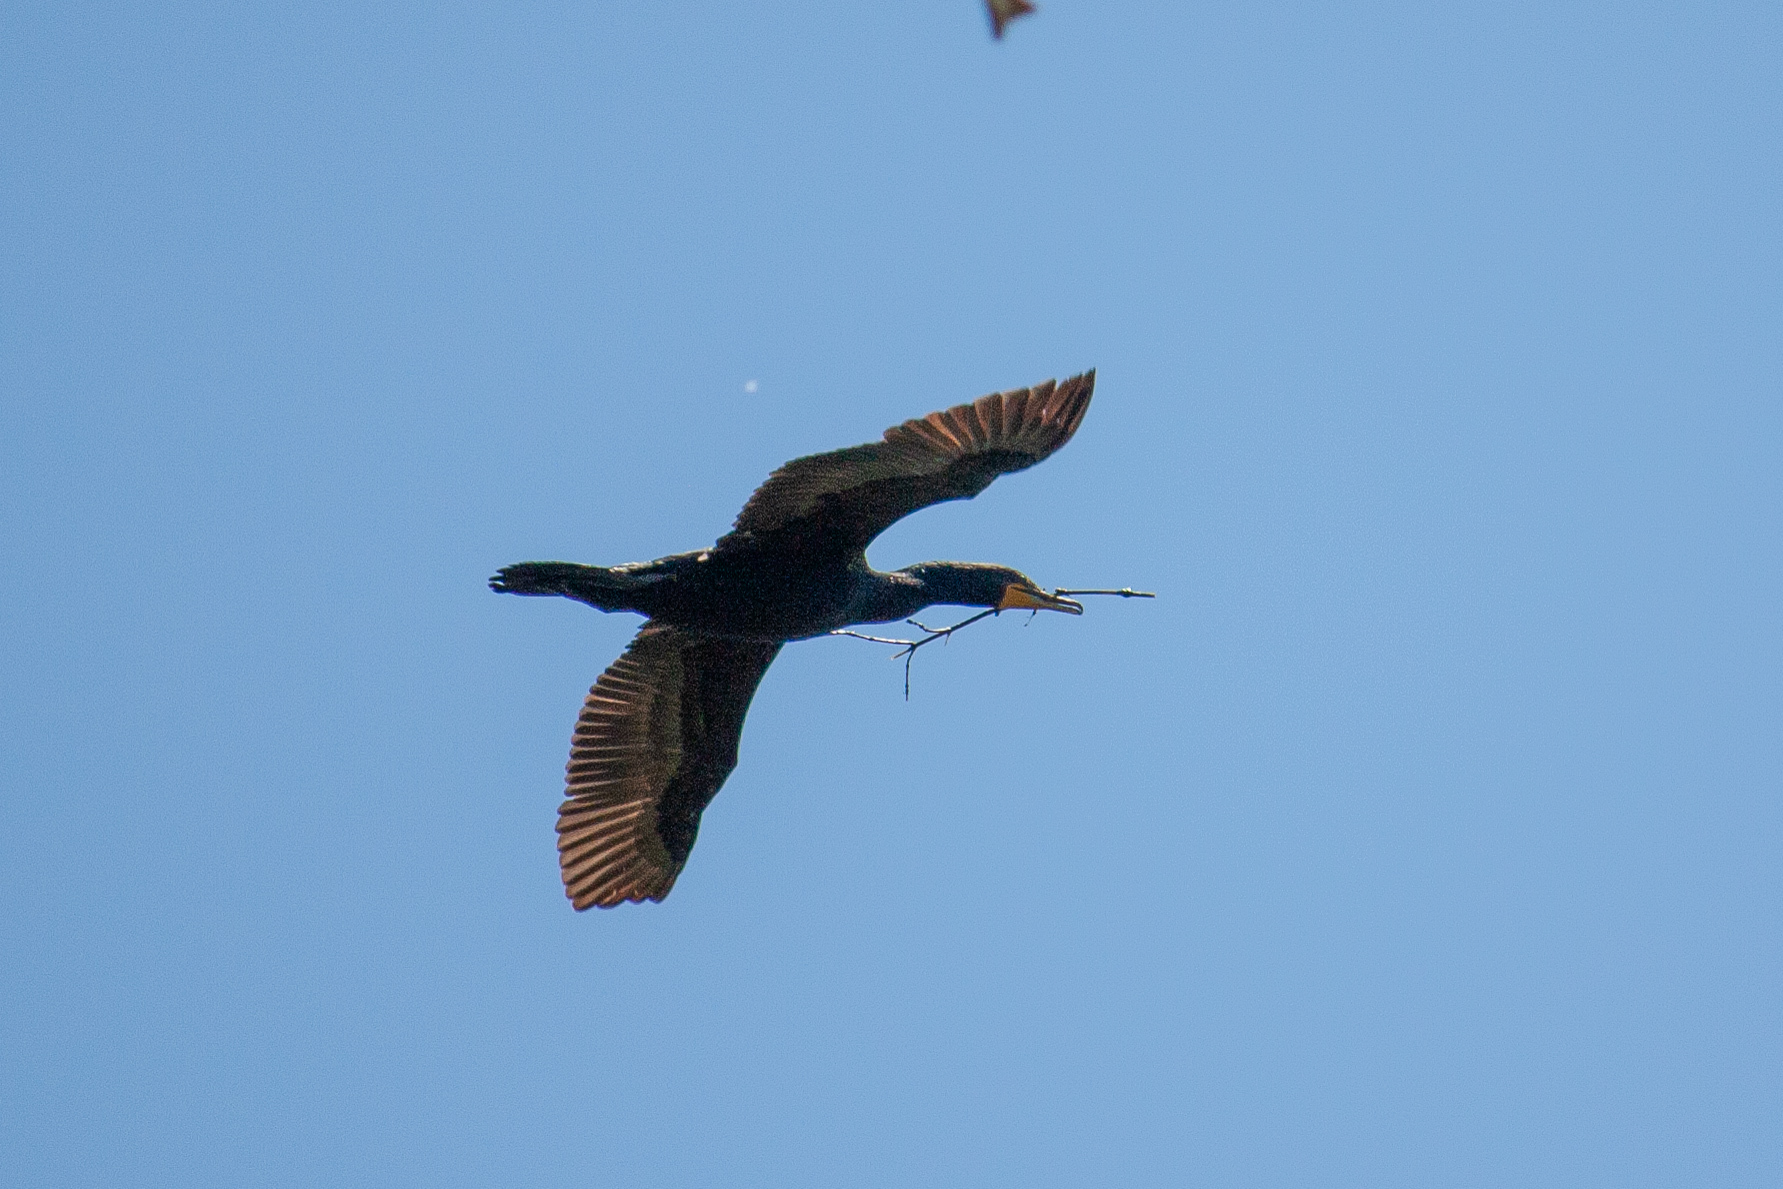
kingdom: Animalia
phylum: Chordata
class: Aves
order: Suliformes
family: Phalacrocoracidae
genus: Phalacrocorax
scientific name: Phalacrocorax auritus
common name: Double-crested cormorant
